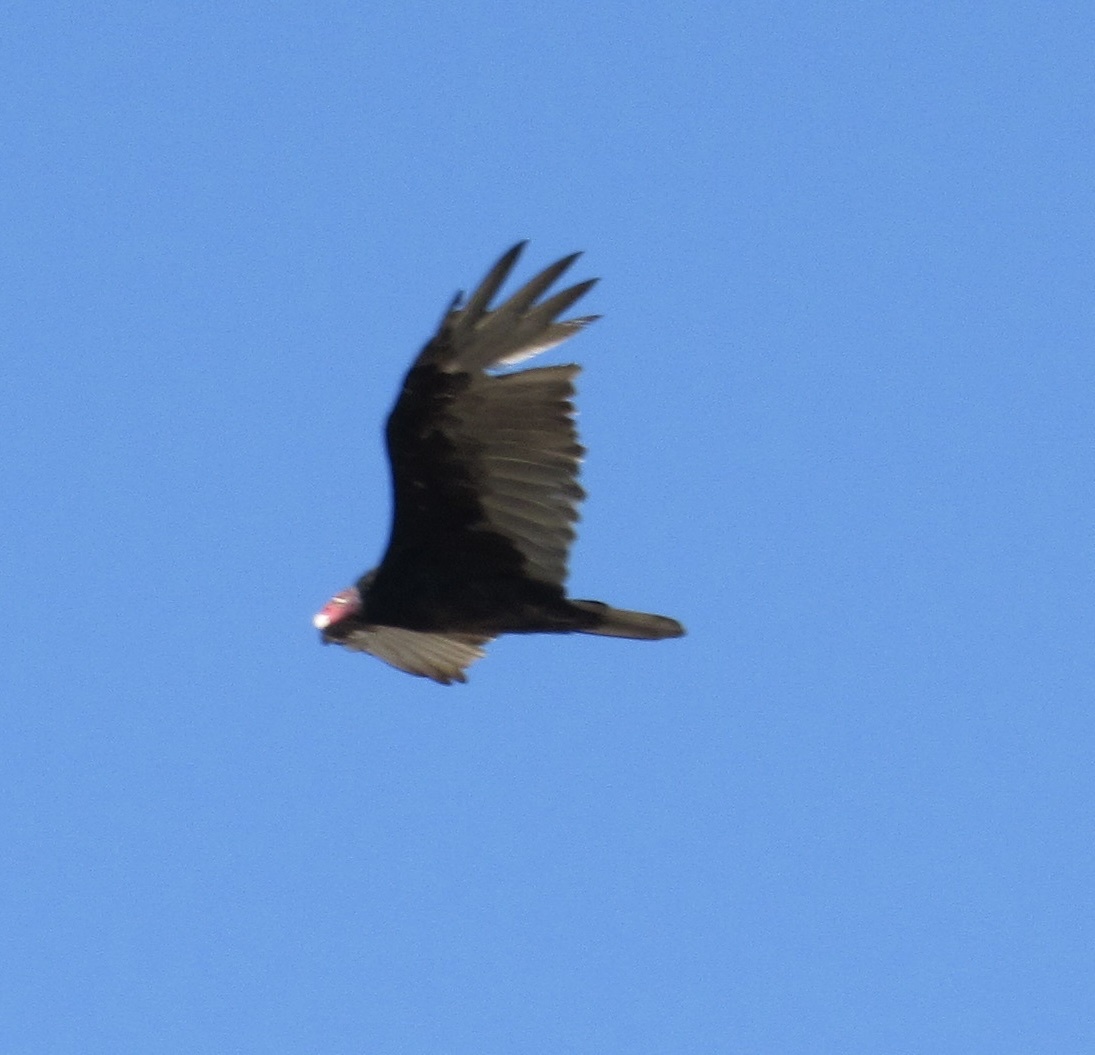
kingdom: Animalia
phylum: Chordata
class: Aves
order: Accipitriformes
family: Cathartidae
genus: Cathartes
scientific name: Cathartes aura
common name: Turkey vulture
